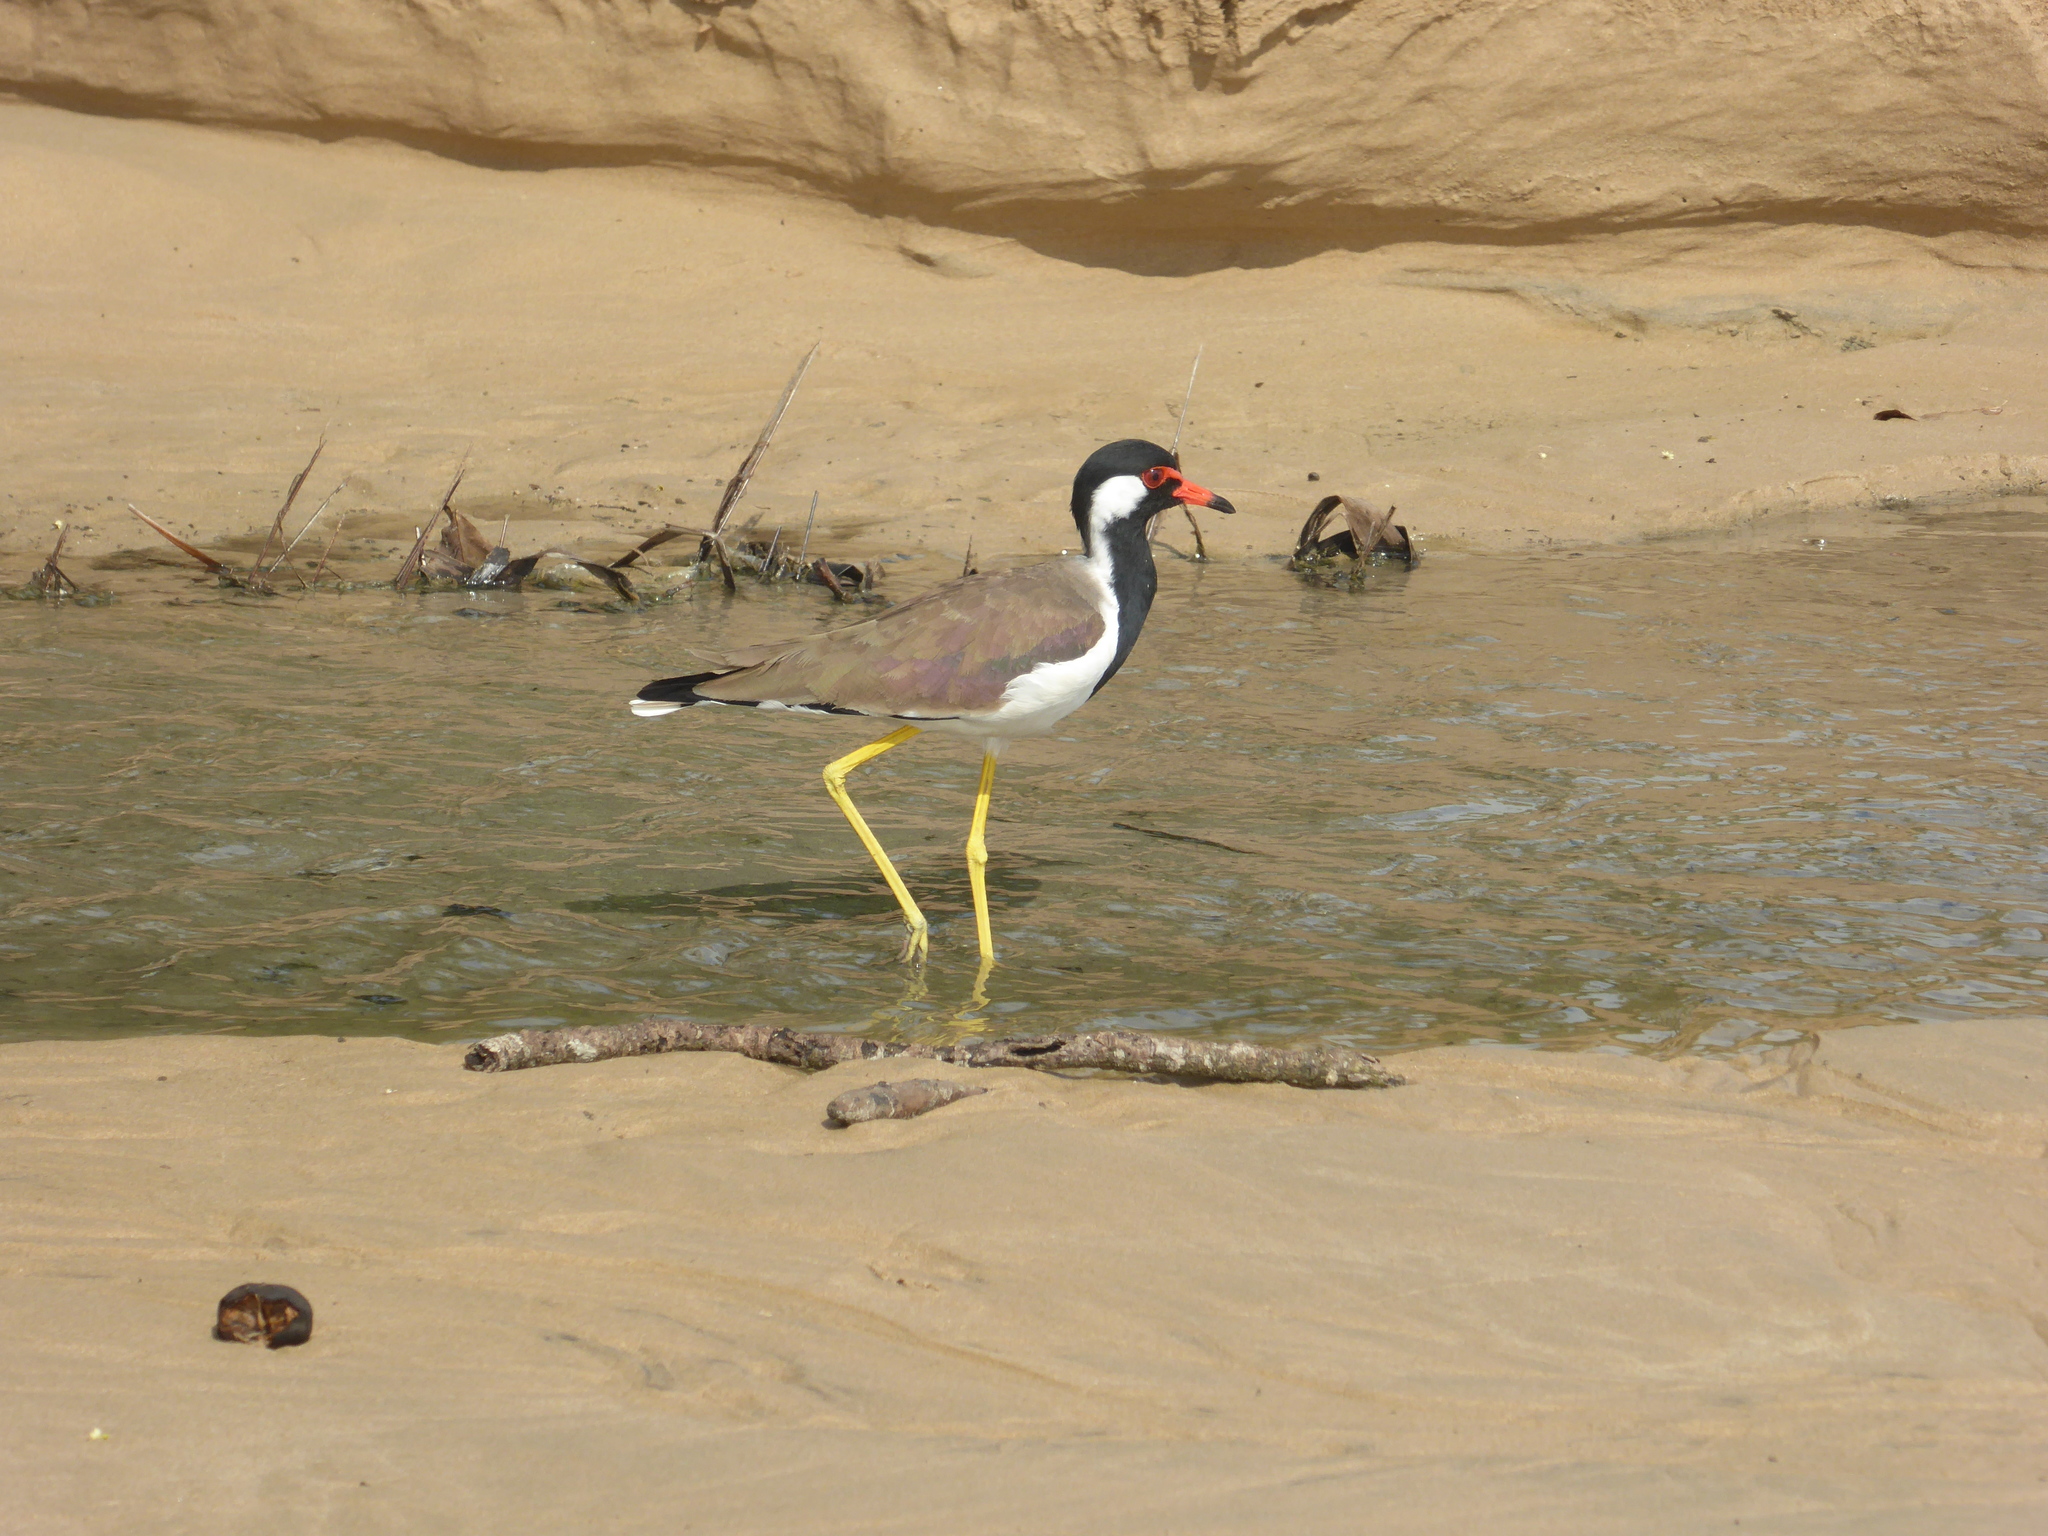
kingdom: Animalia
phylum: Chordata
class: Aves
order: Charadriiformes
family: Charadriidae
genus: Vanellus
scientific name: Vanellus indicus
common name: Red-wattled lapwing
